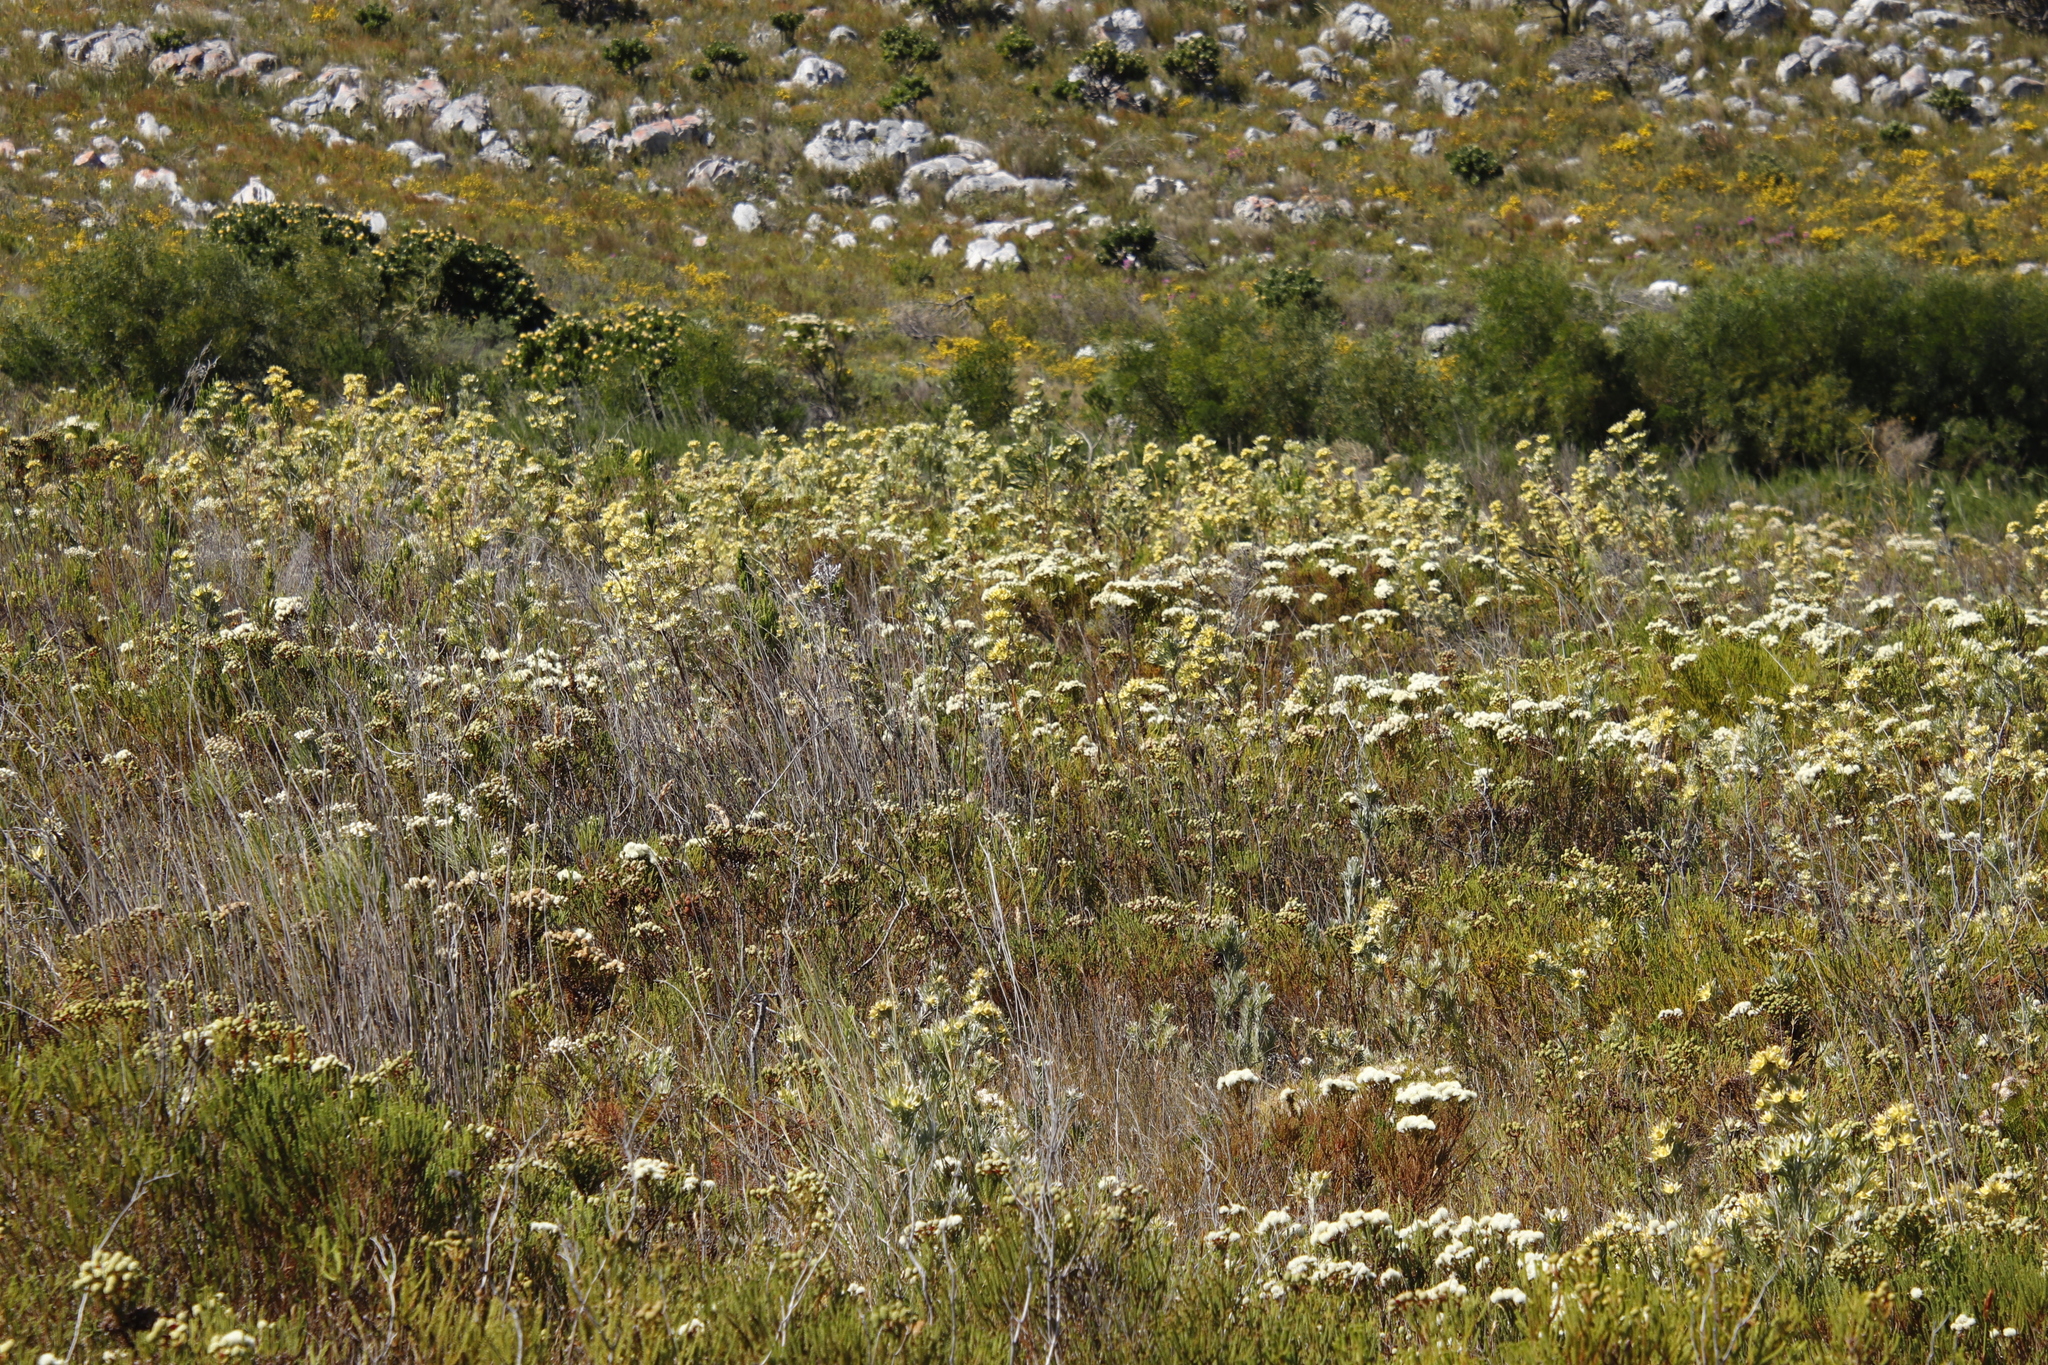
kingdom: Plantae
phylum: Tracheophyta
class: Magnoliopsida
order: Proteales
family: Proteaceae
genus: Leucadendron
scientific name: Leucadendron floridum
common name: Flats conebush
